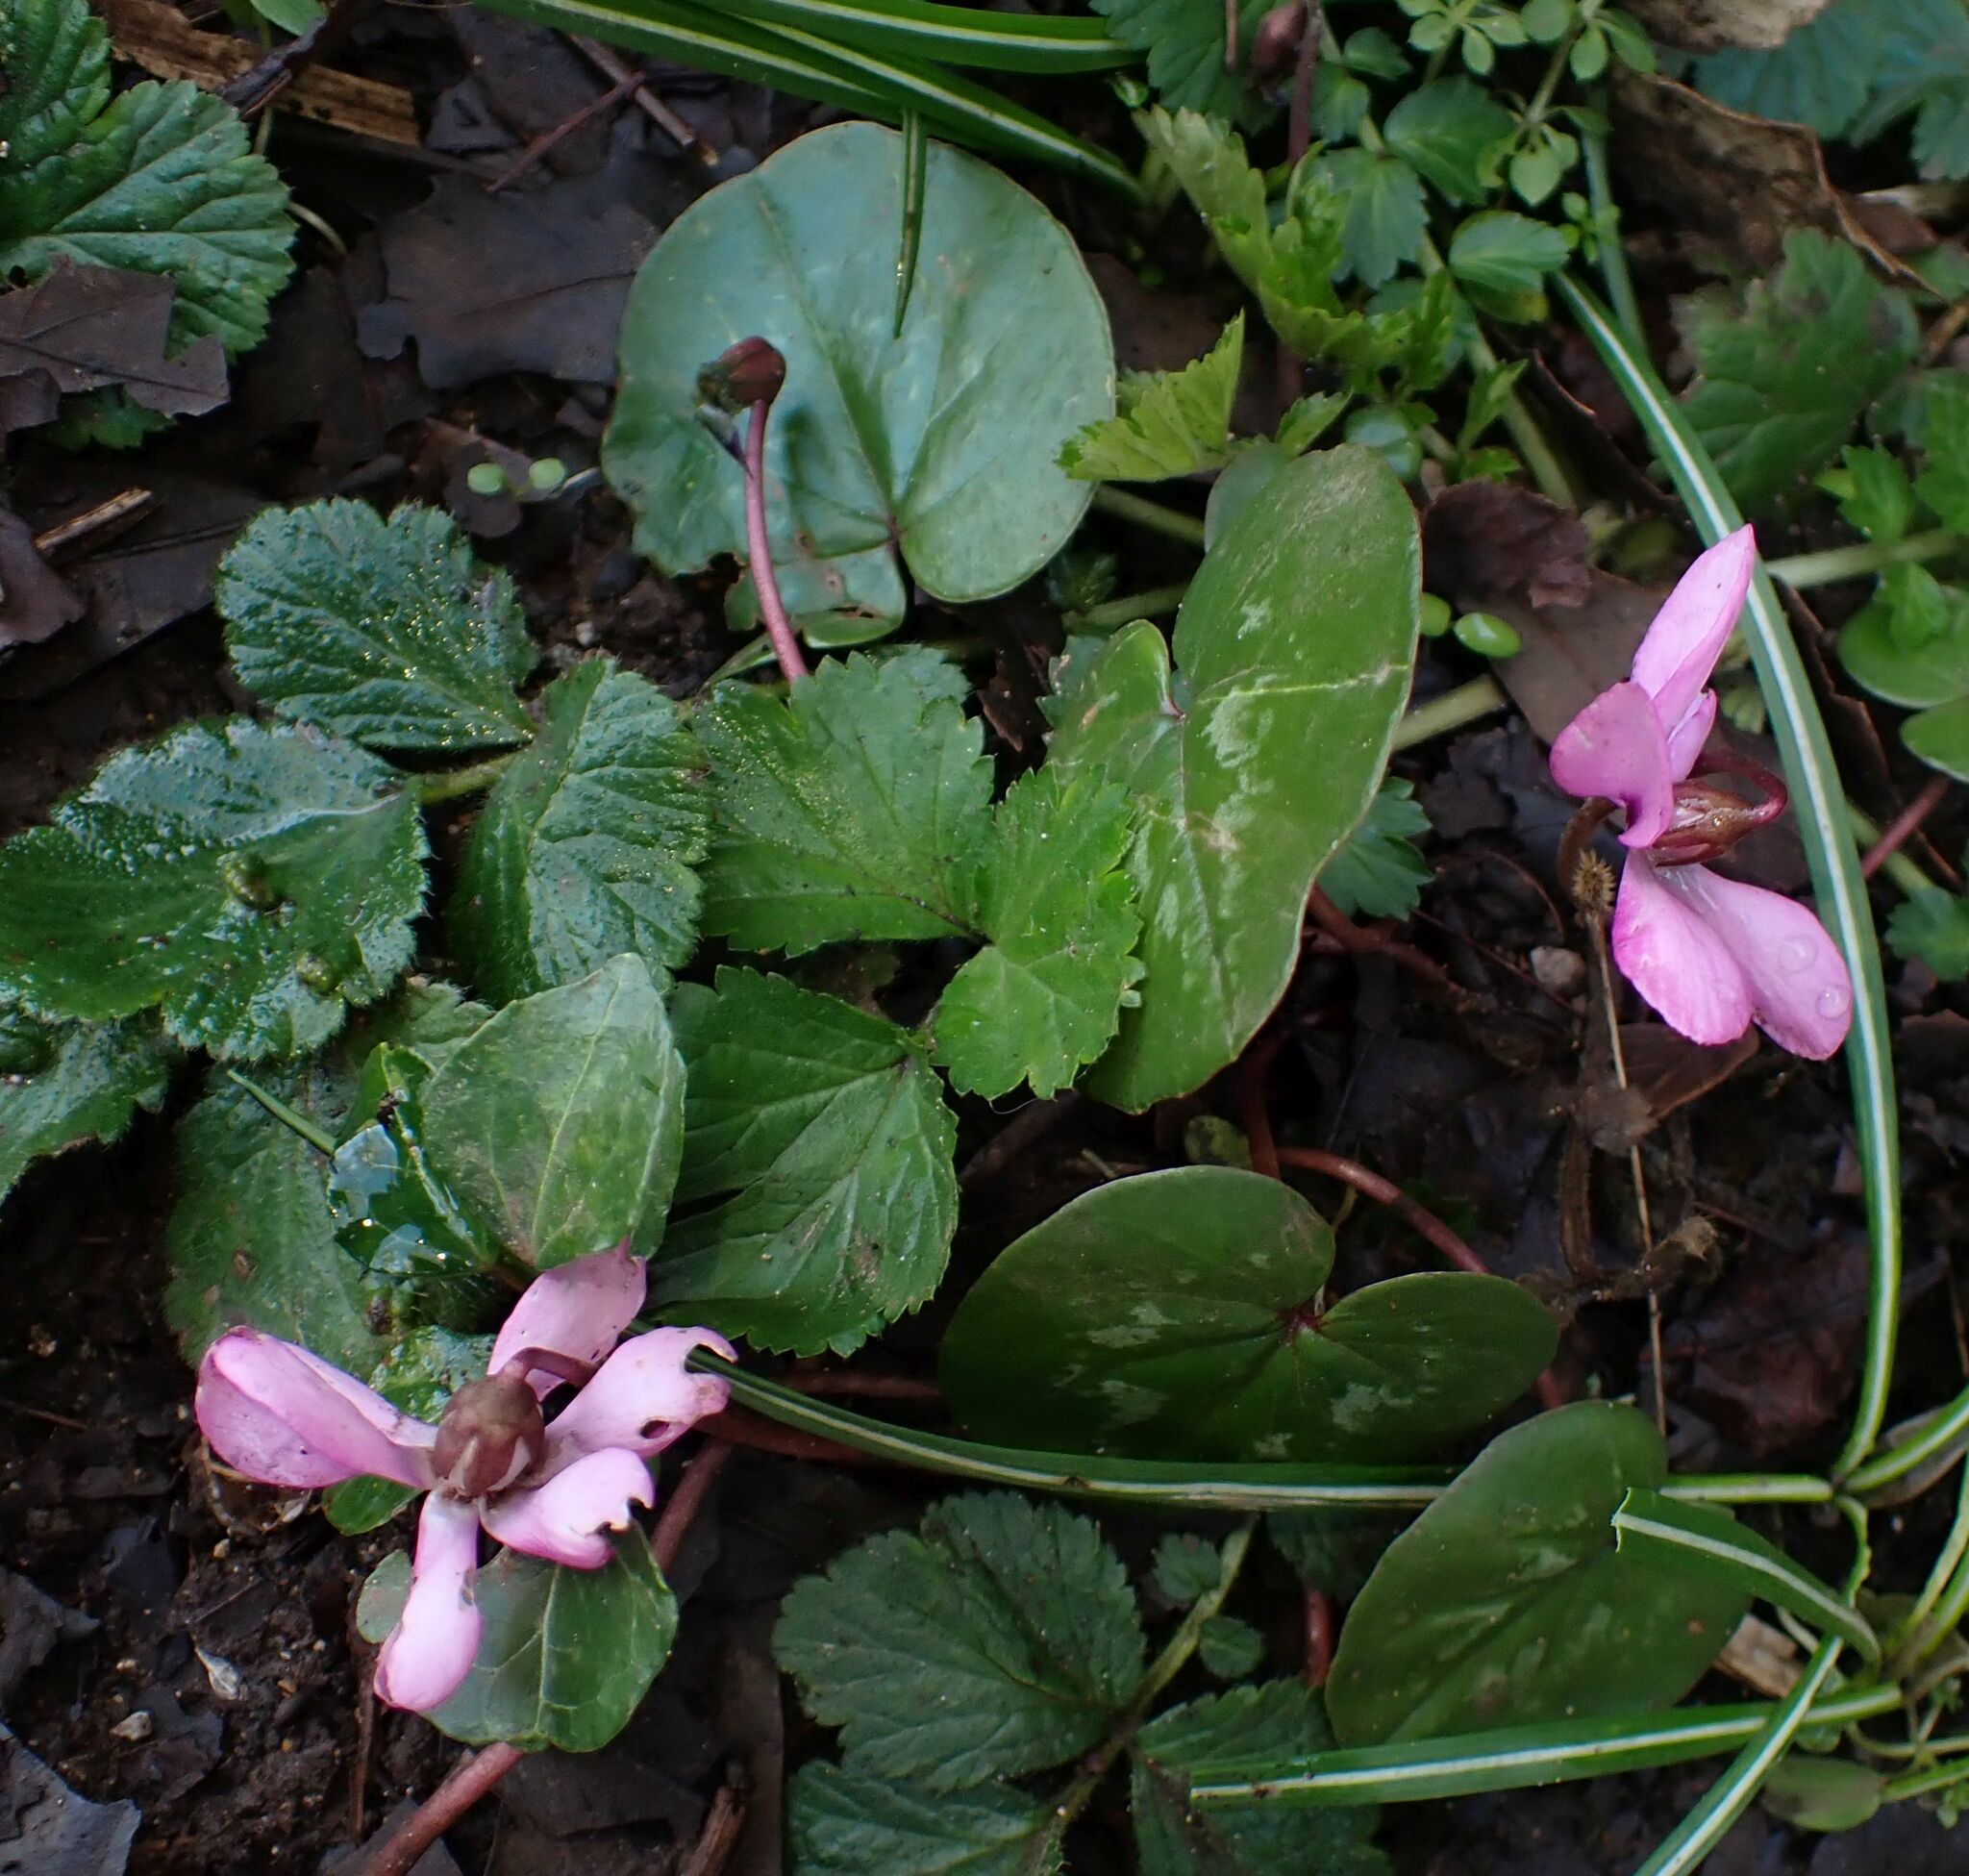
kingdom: Plantae
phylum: Tracheophyta
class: Magnoliopsida
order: Ericales
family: Primulaceae
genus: Cyclamen
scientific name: Cyclamen coum
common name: Eastern sowbread
